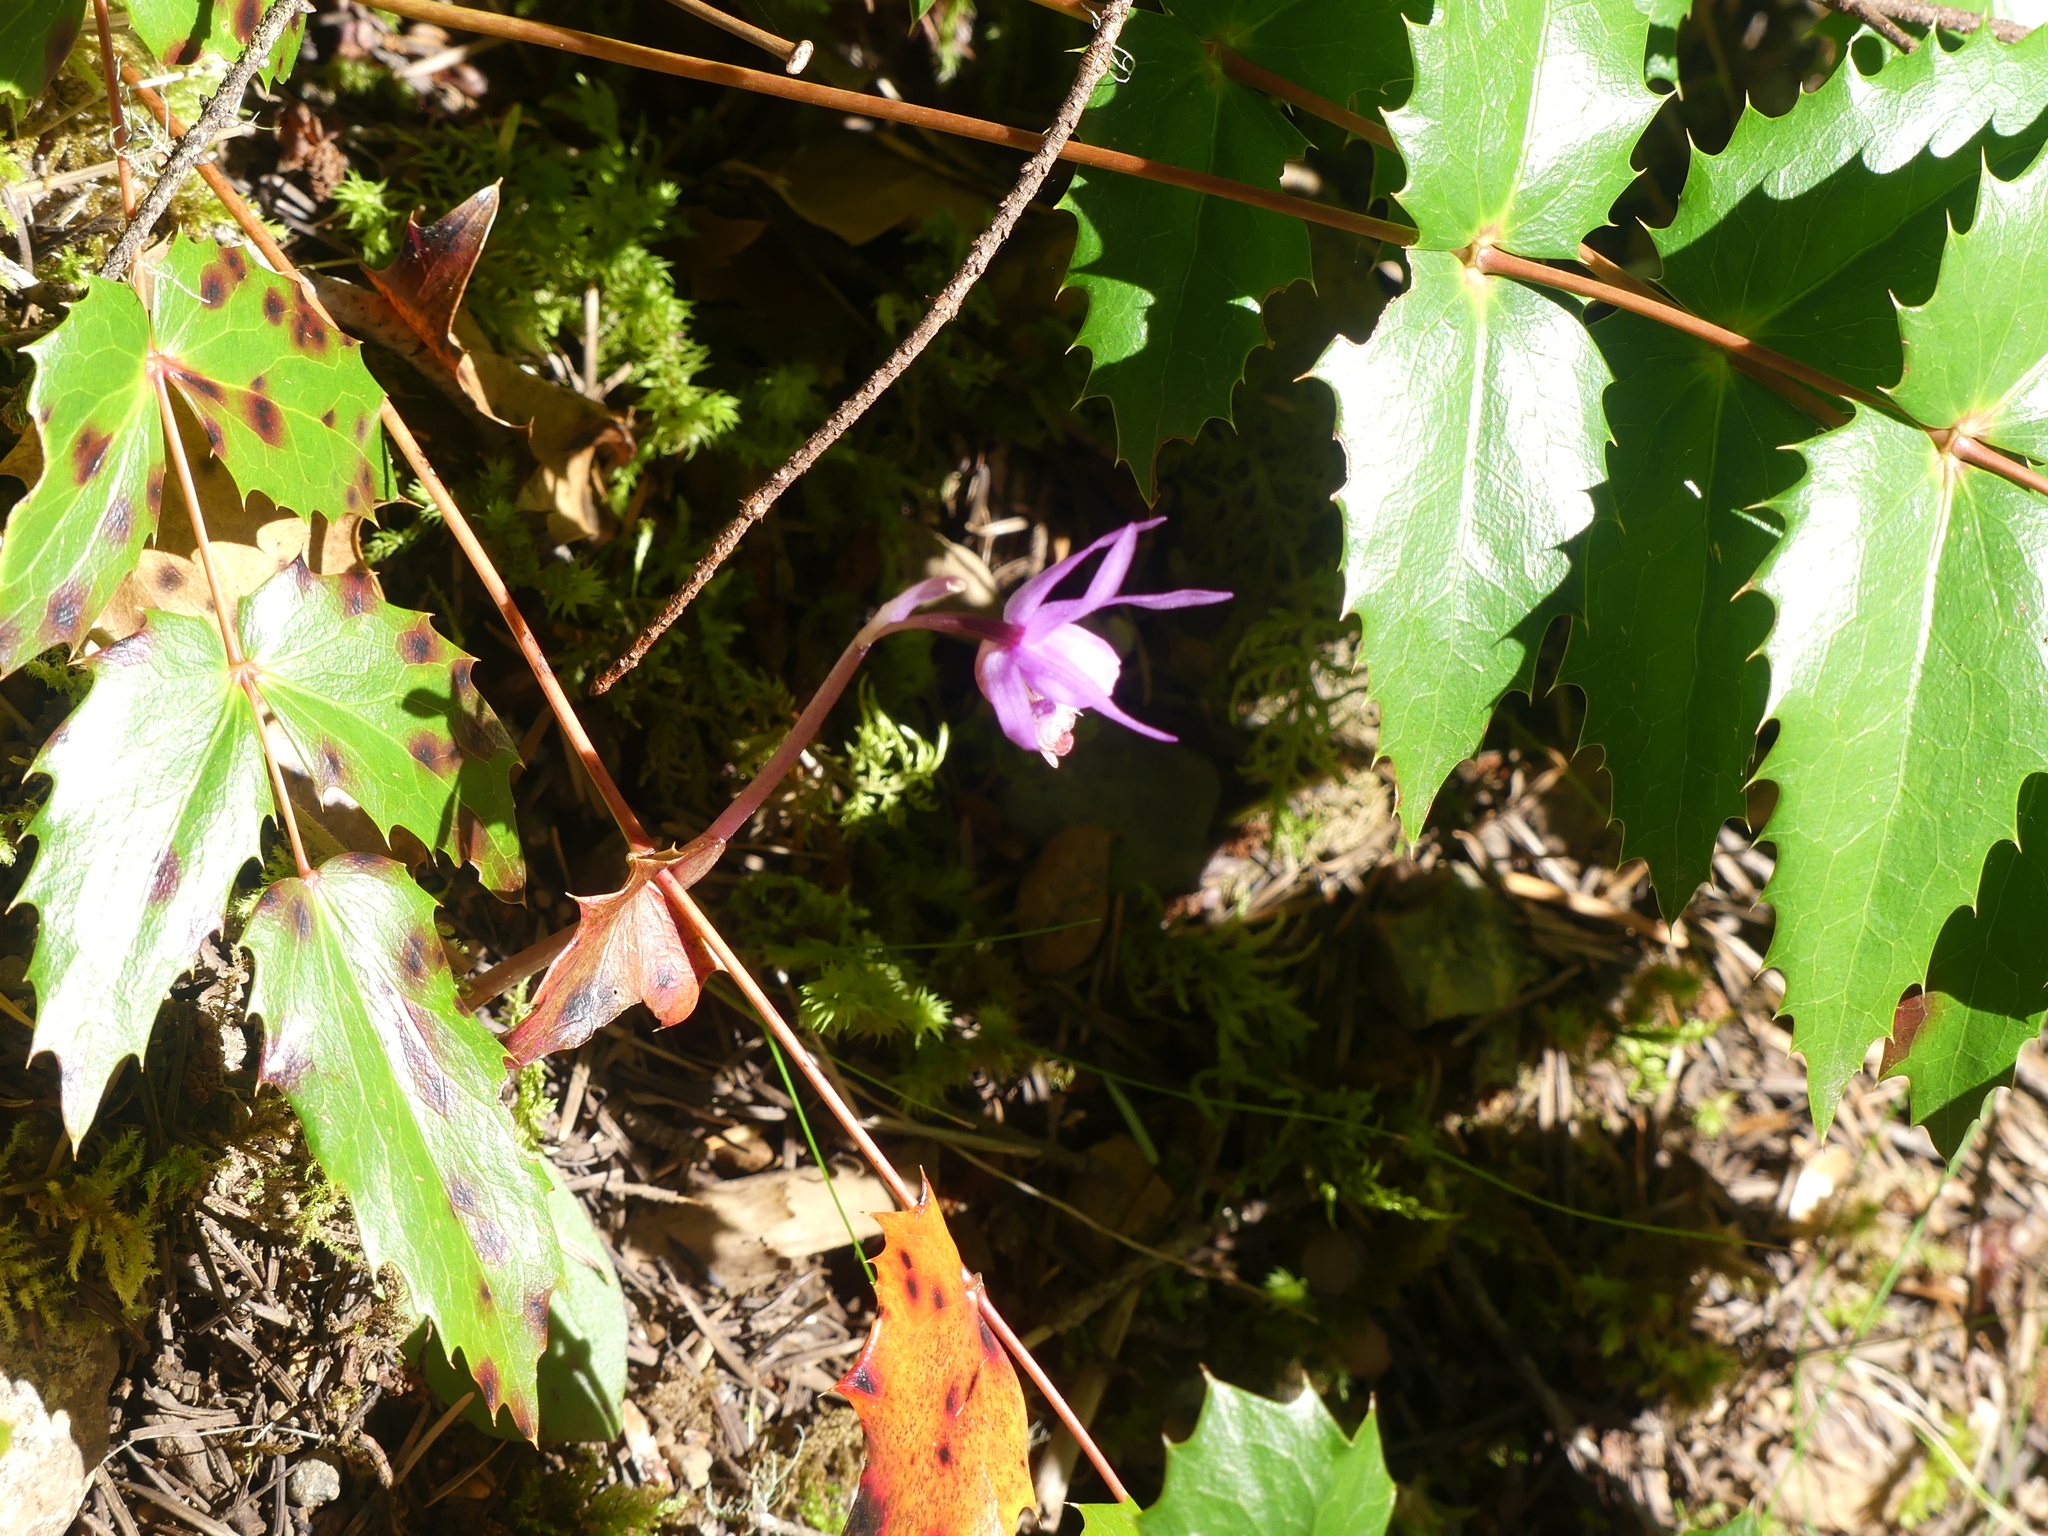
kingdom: Plantae
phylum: Tracheophyta
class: Liliopsida
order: Asparagales
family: Orchidaceae
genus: Calypso
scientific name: Calypso bulbosa
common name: Calypso
